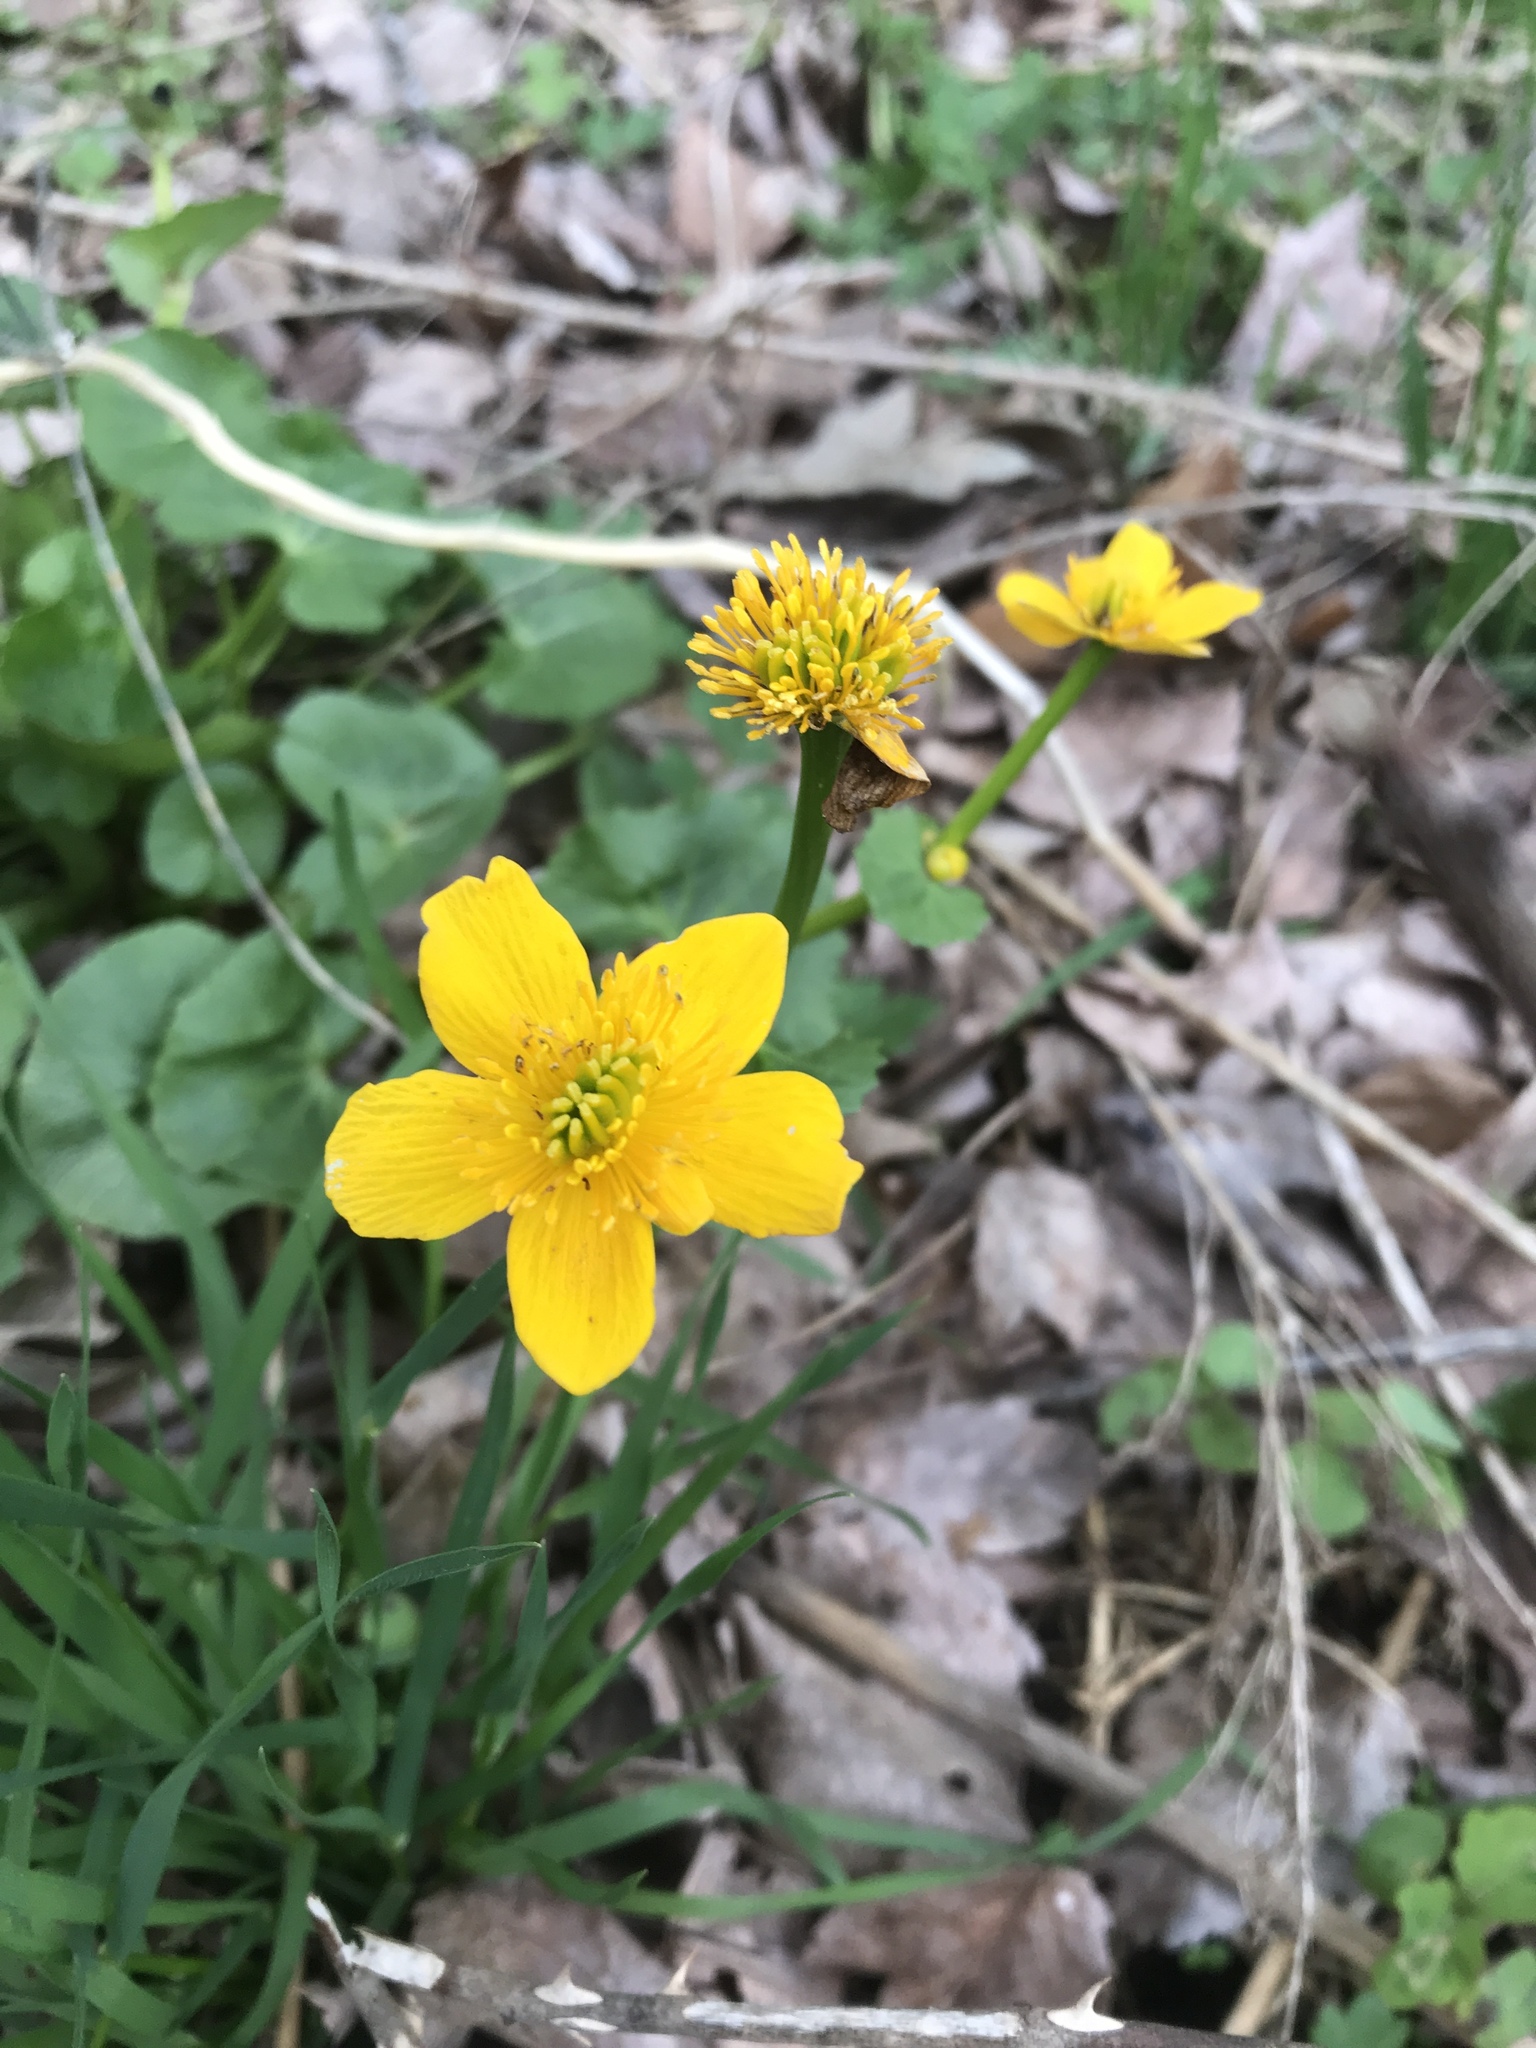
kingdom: Plantae
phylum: Tracheophyta
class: Magnoliopsida
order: Ranunculales
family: Ranunculaceae
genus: Caltha
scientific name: Caltha palustris
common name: Marsh marigold
